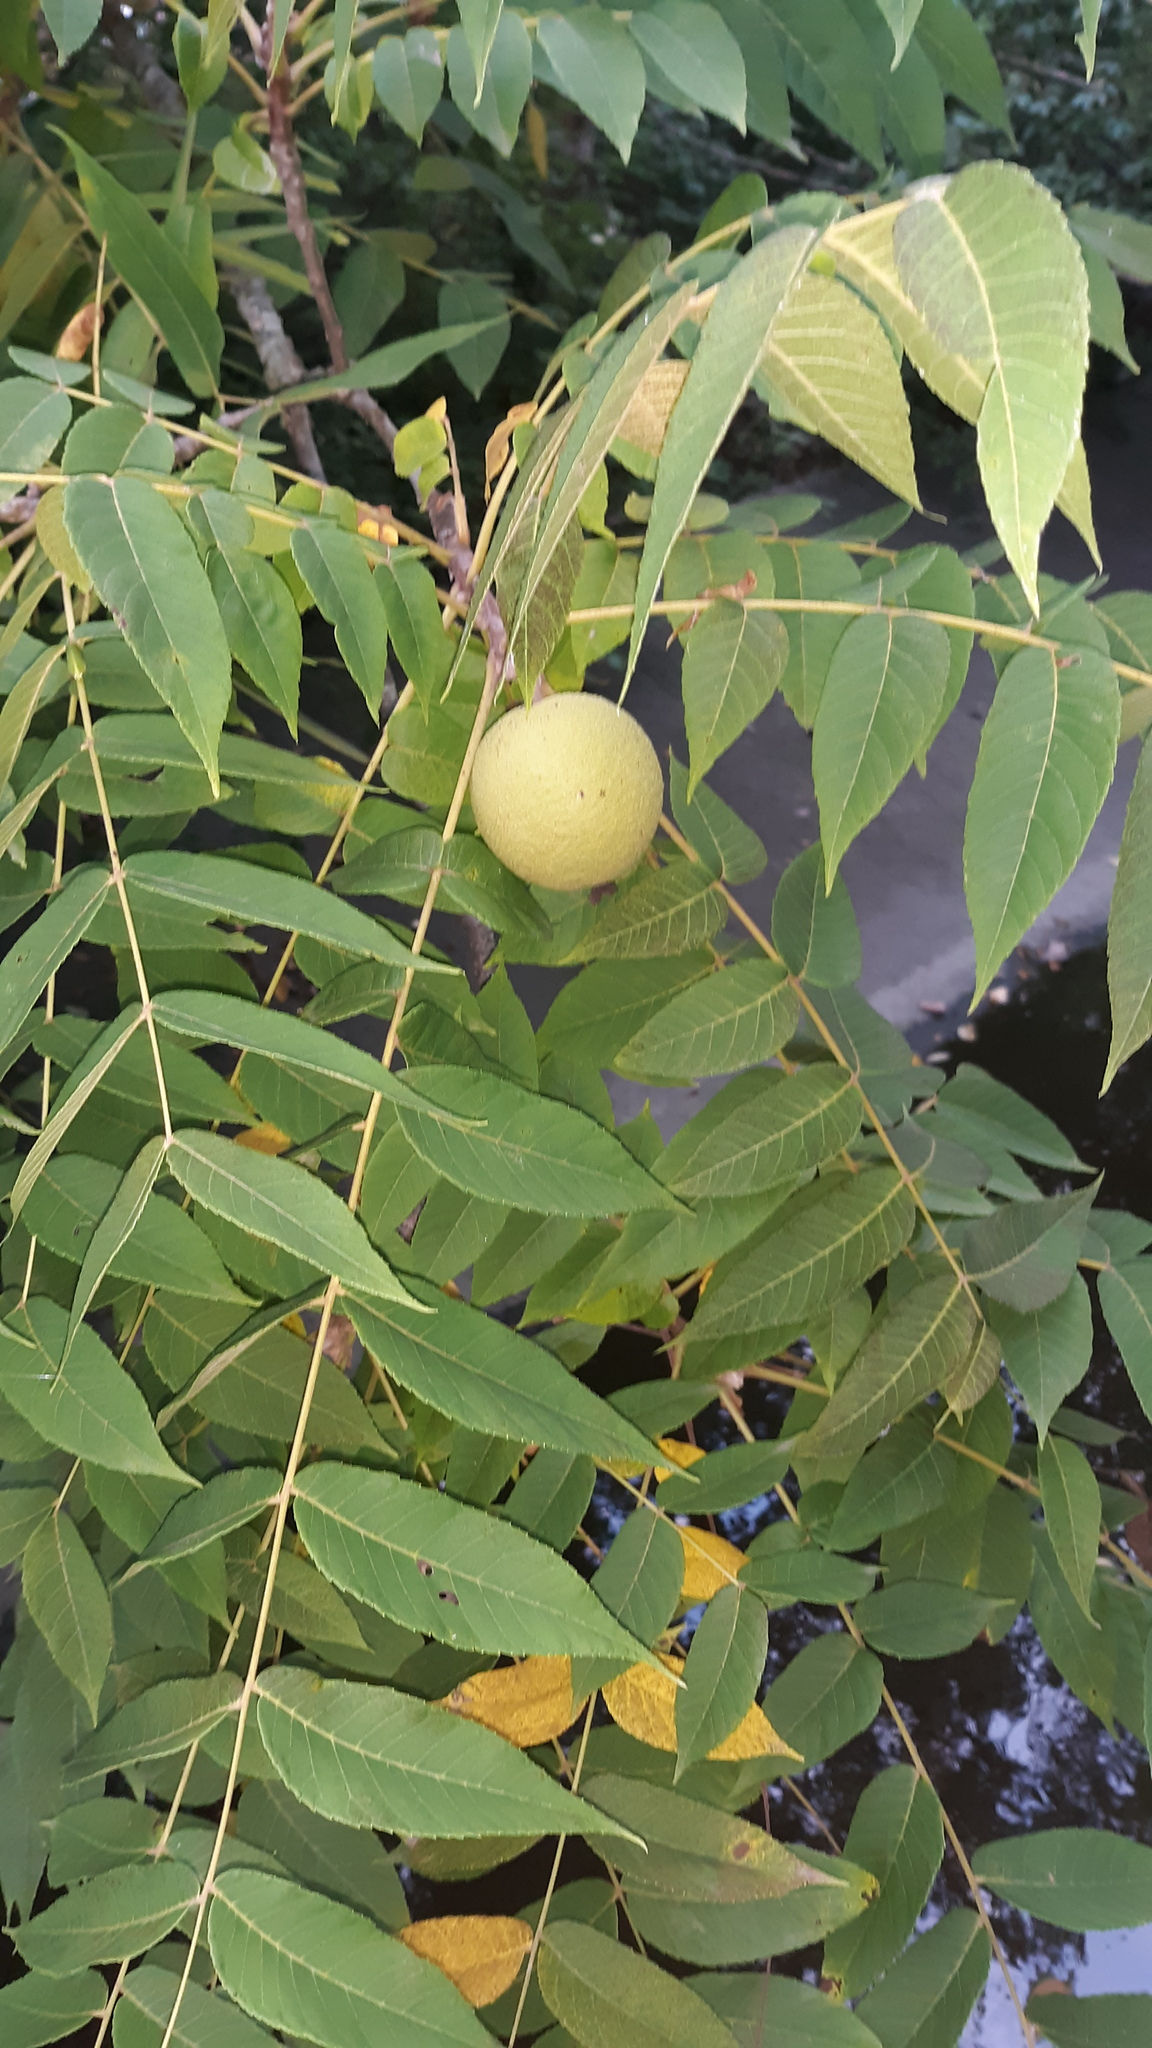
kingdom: Plantae
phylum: Tracheophyta
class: Magnoliopsida
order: Fagales
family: Juglandaceae
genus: Juglans
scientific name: Juglans nigra
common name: Black walnut
